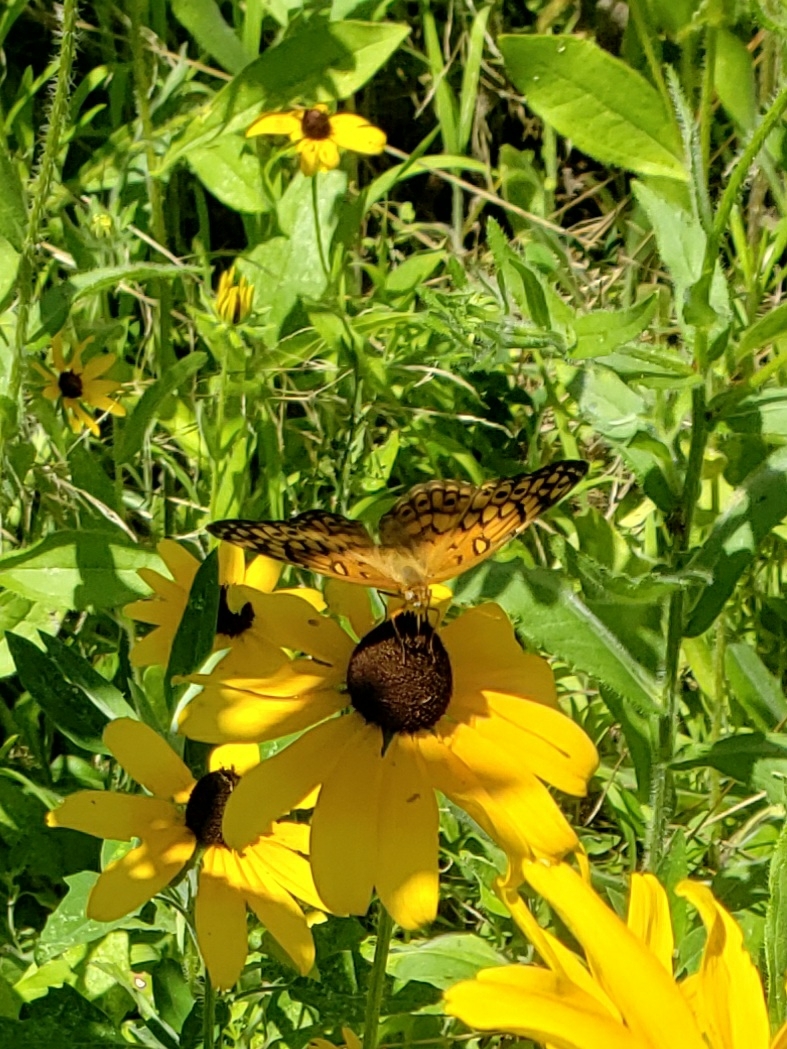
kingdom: Animalia
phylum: Arthropoda
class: Insecta
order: Lepidoptera
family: Nymphalidae
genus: Euptoieta
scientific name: Euptoieta claudia
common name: Variegated fritillary
